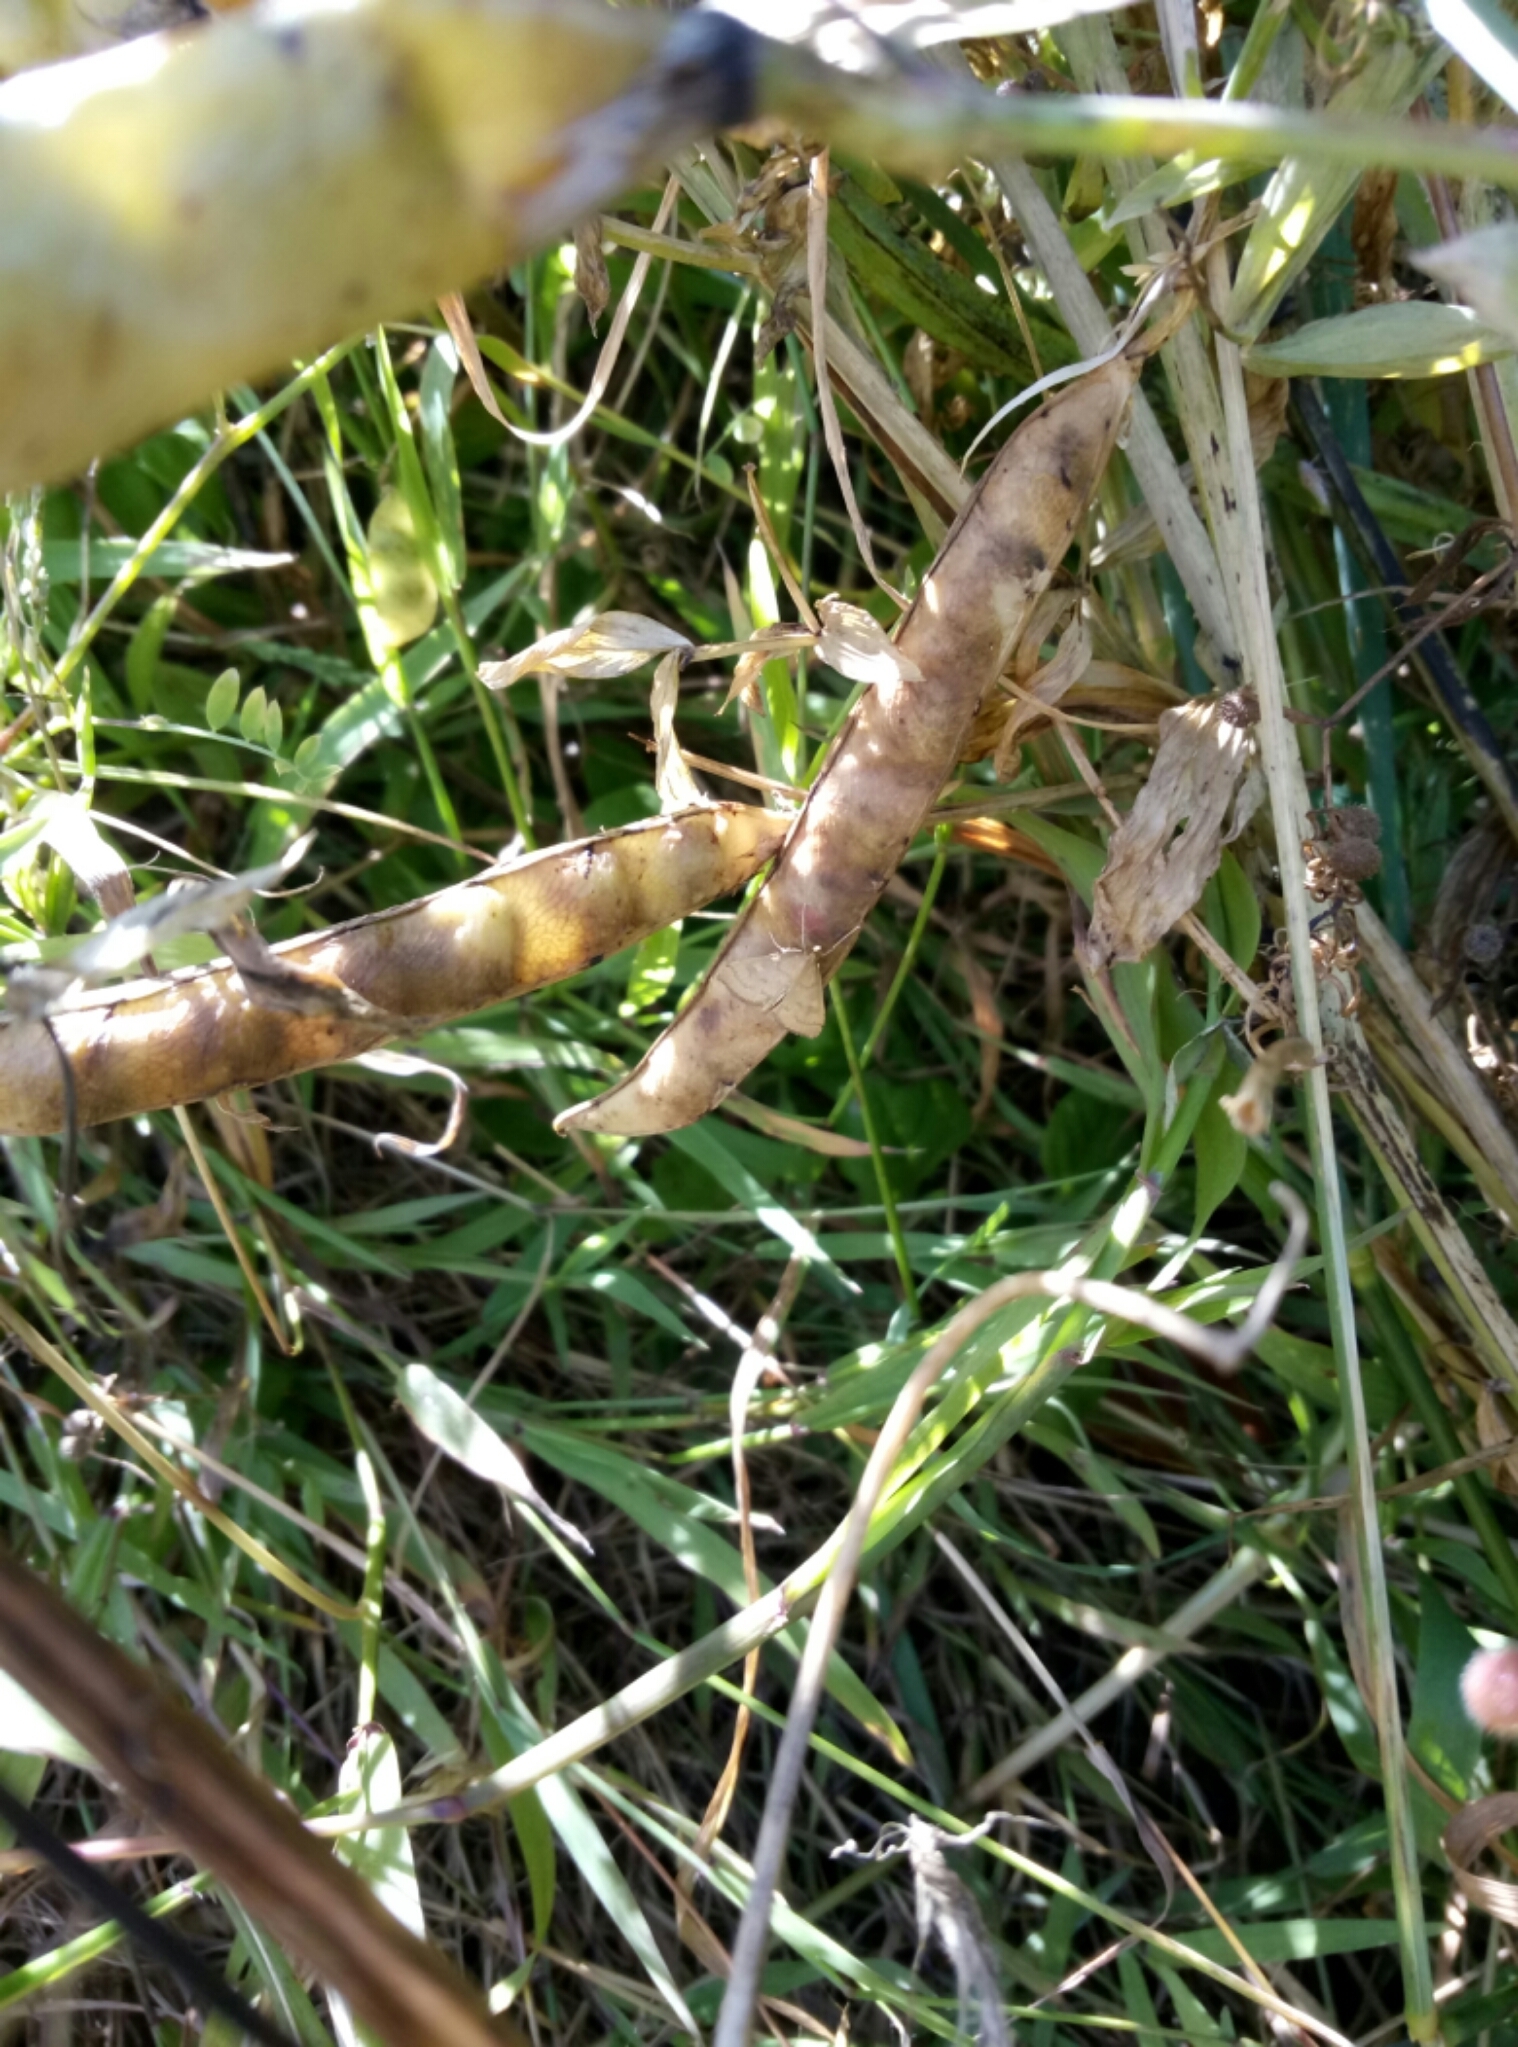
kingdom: Animalia
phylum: Arthropoda
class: Insecta
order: Lepidoptera
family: Crambidae
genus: Udea
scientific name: Udea Mnesictena flavidalis
